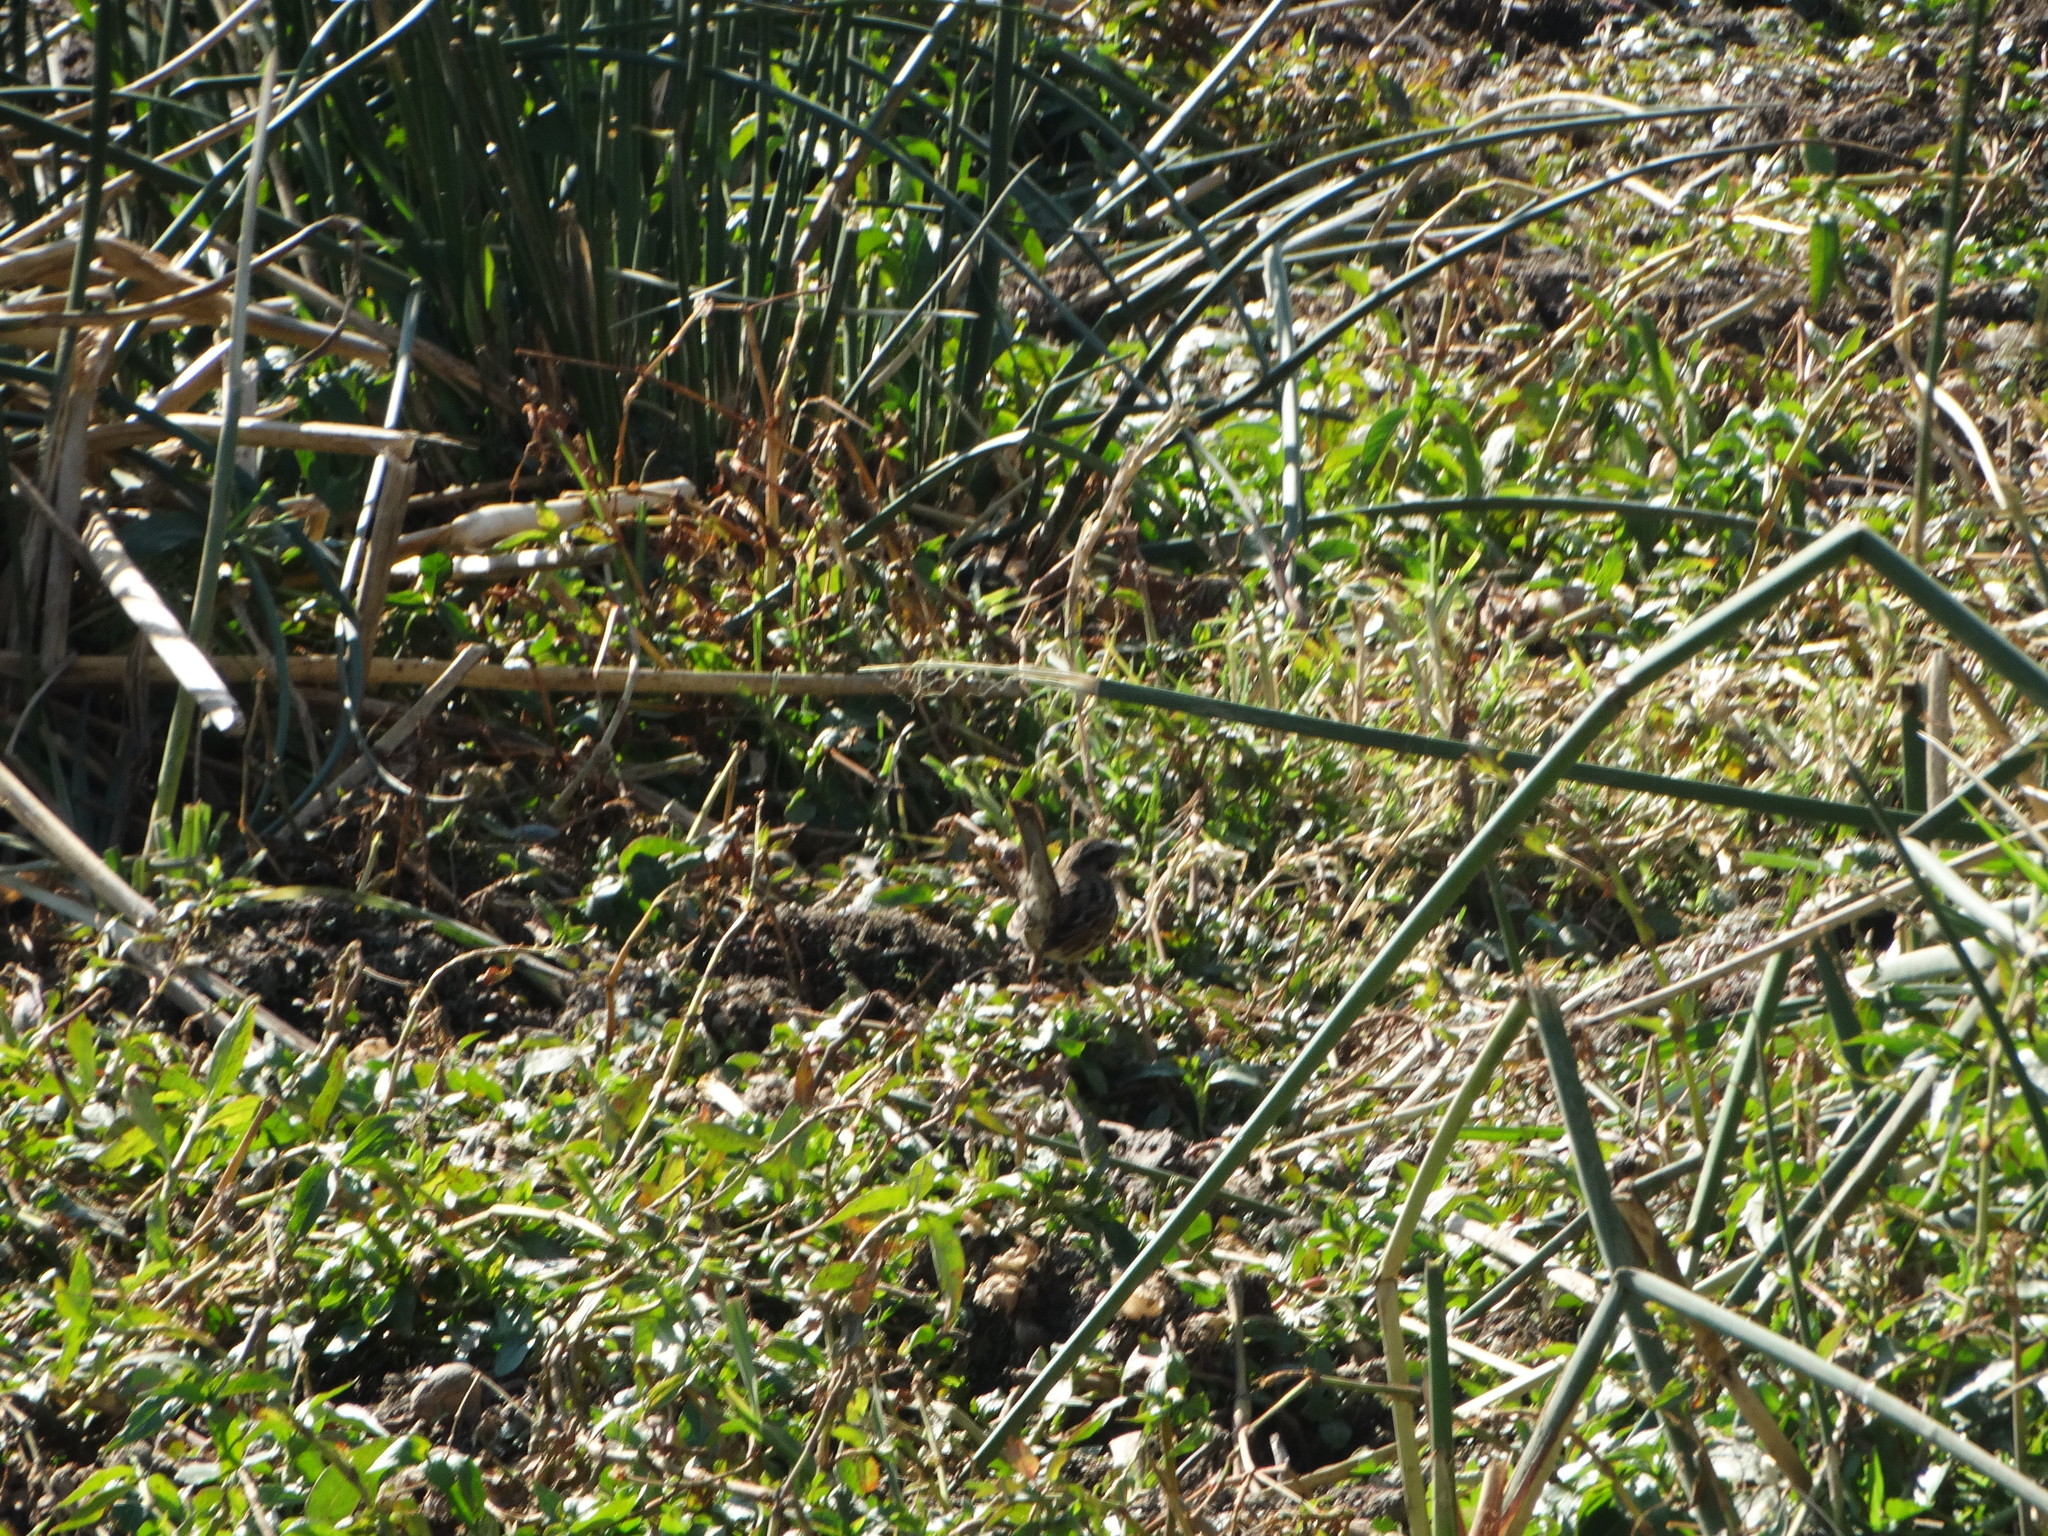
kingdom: Animalia
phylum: Chordata
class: Aves
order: Passeriformes
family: Passerellidae
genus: Melospiza
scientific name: Melospiza melodia
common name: Song sparrow
